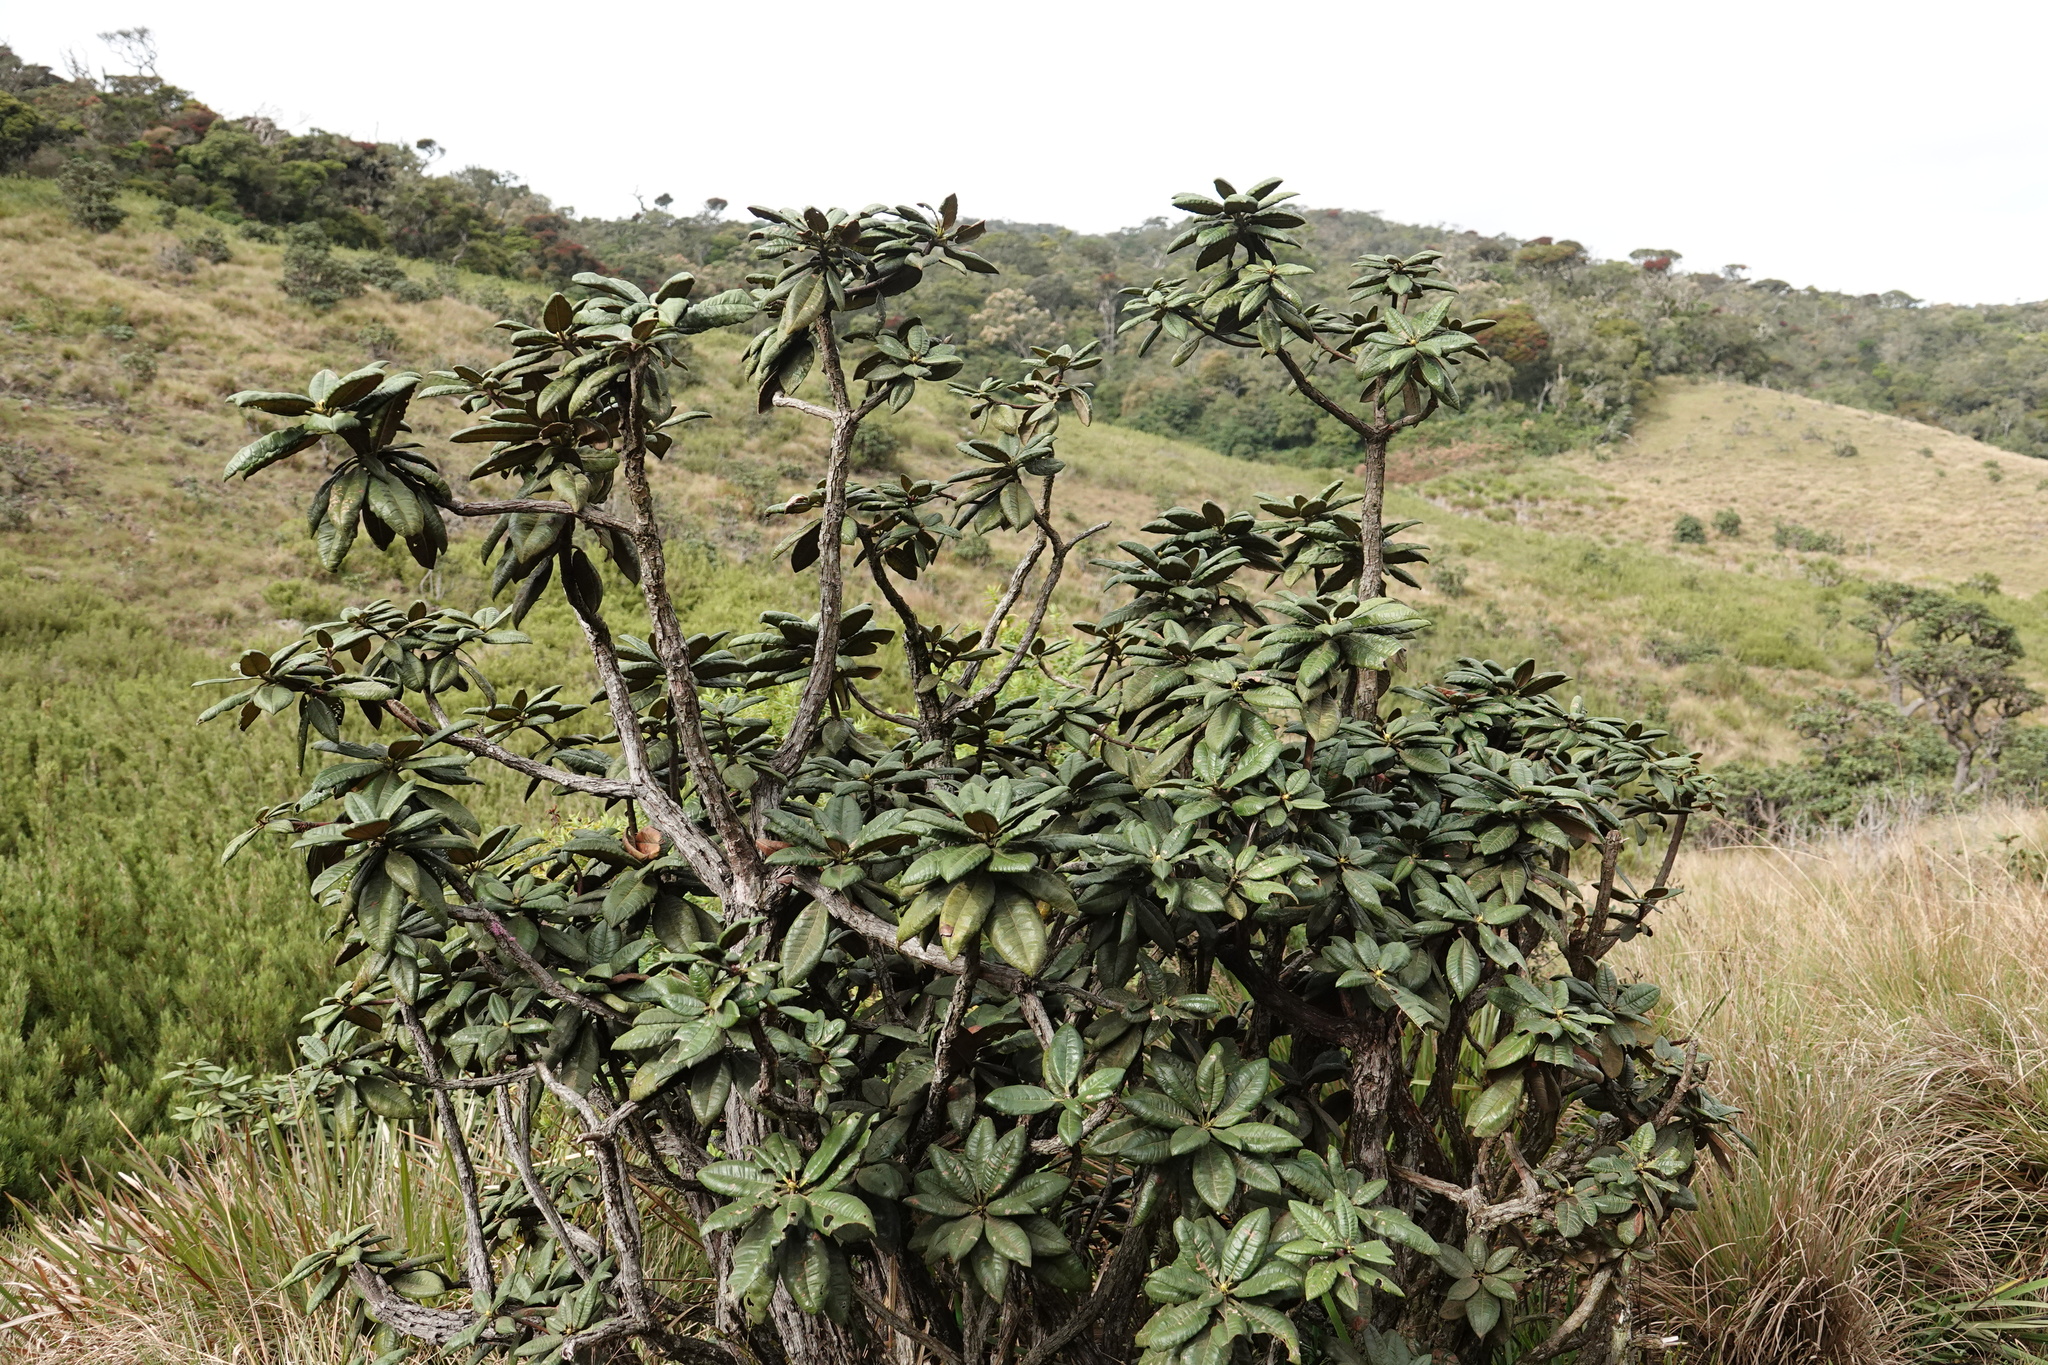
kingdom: Plantae
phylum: Tracheophyta
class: Magnoliopsida
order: Ericales
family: Ericaceae
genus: Rhododendron
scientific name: Rhododendron arboreum
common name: Tree rhododendron
